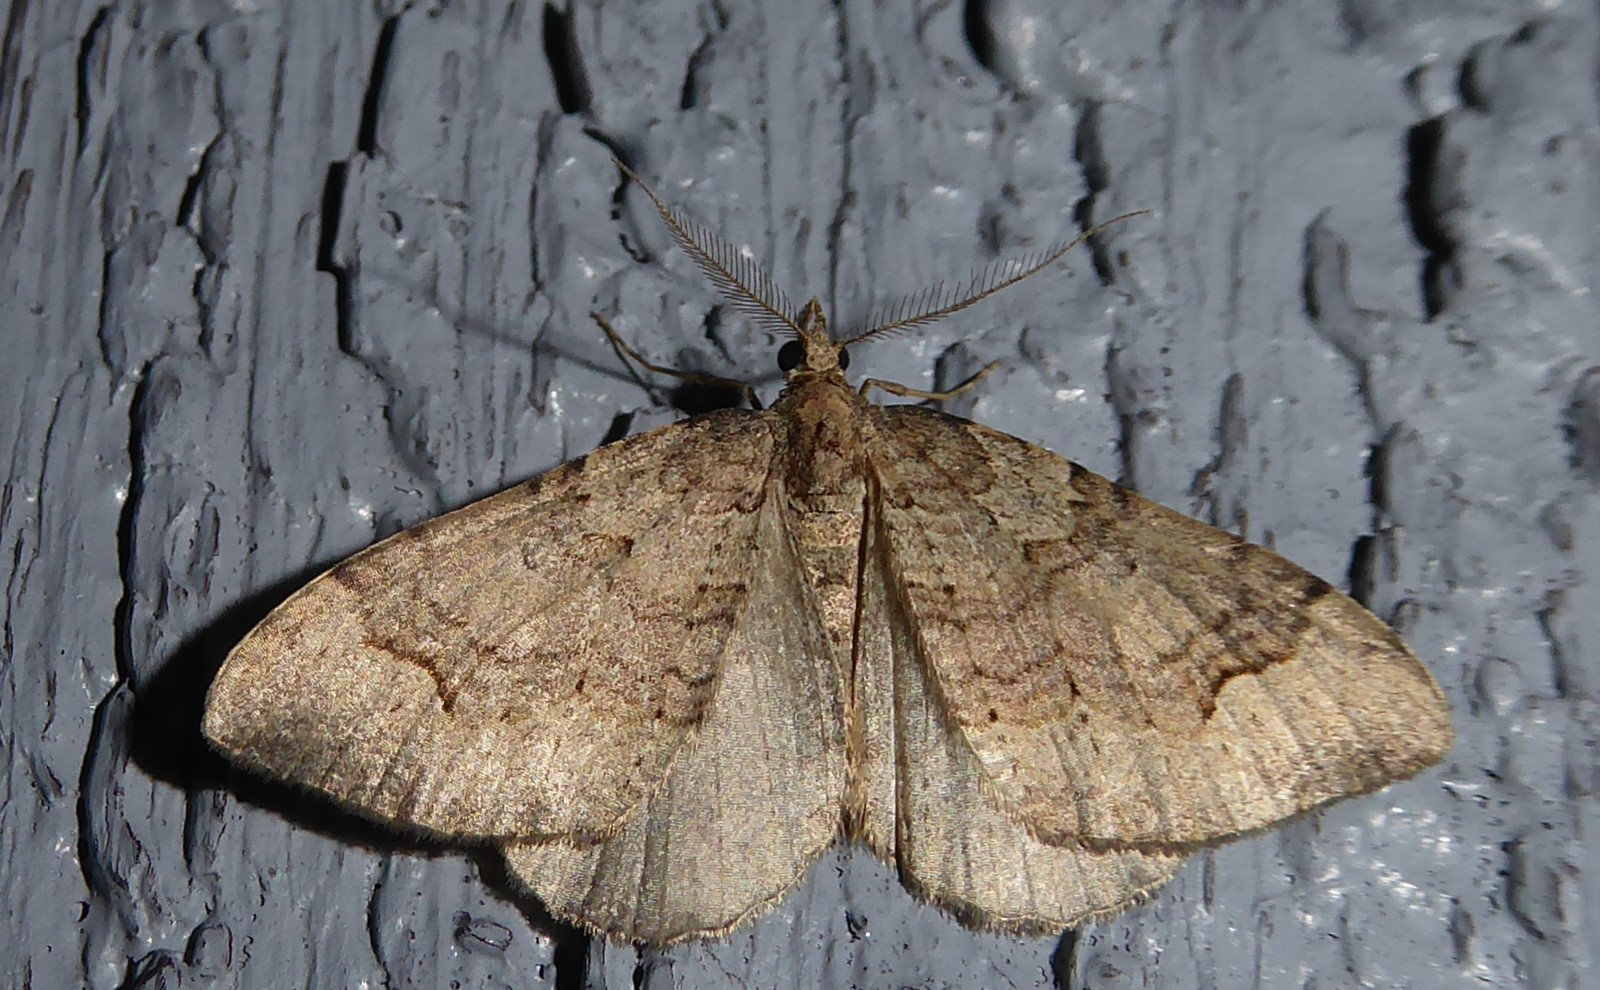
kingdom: Animalia
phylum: Arthropoda
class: Insecta
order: Lepidoptera
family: Geometridae
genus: Epyaxa
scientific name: Epyaxa rosearia
